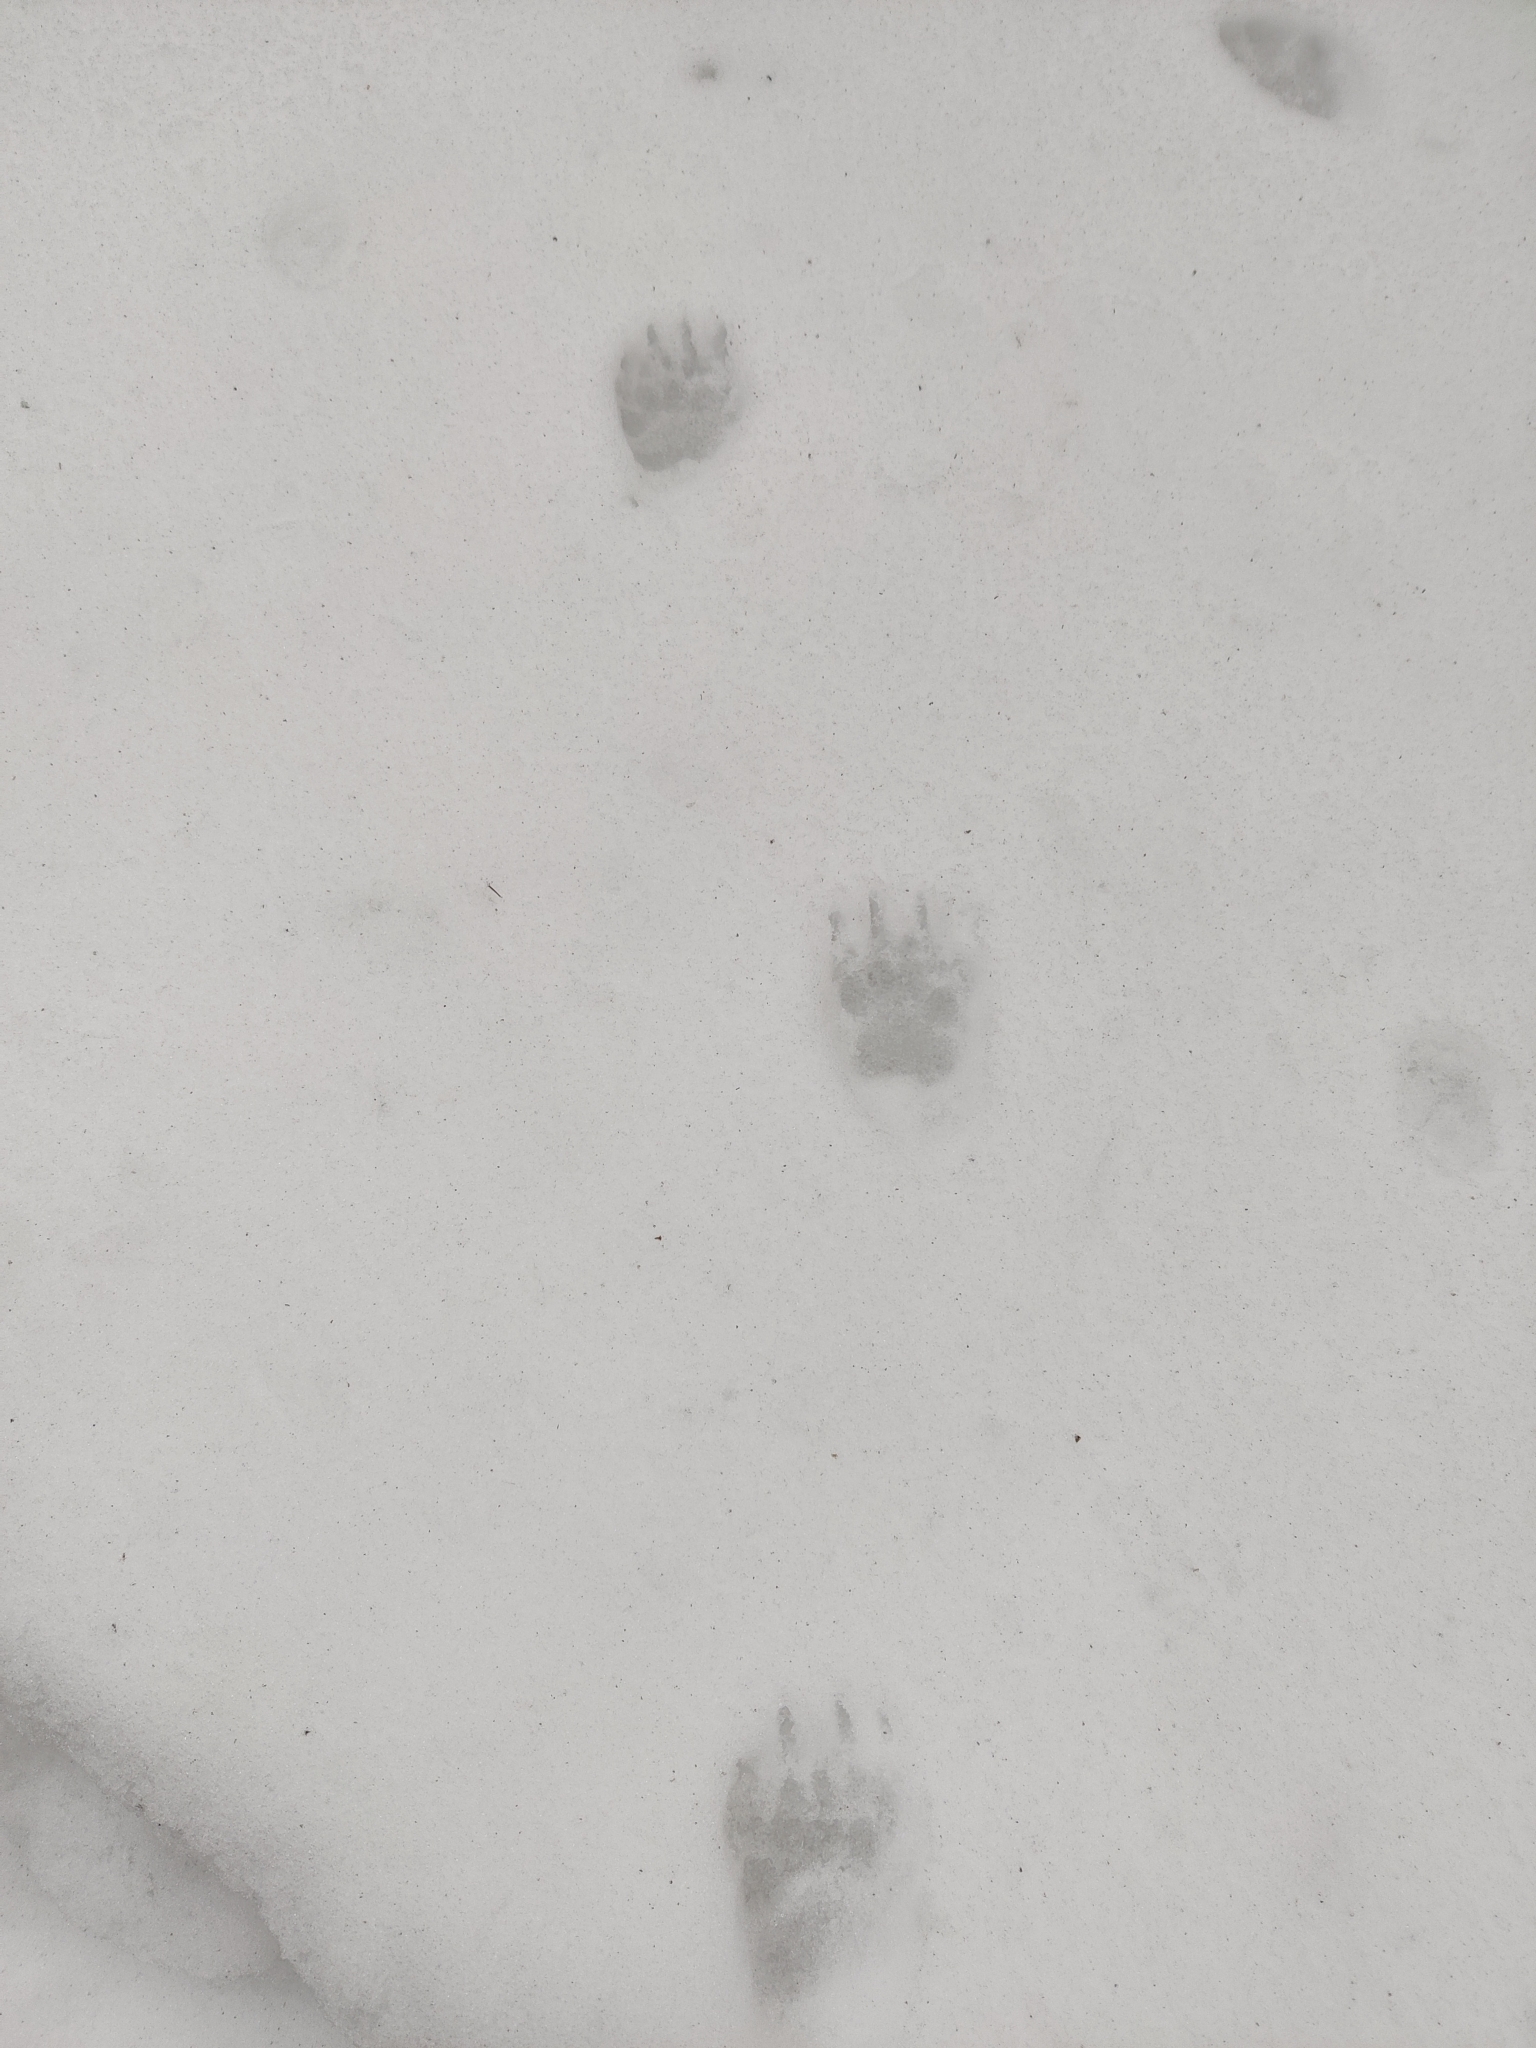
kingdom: Animalia
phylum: Chordata
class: Mammalia
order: Carnivora
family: Mustelidae
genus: Meles
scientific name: Meles meles
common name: Eurasian badger
